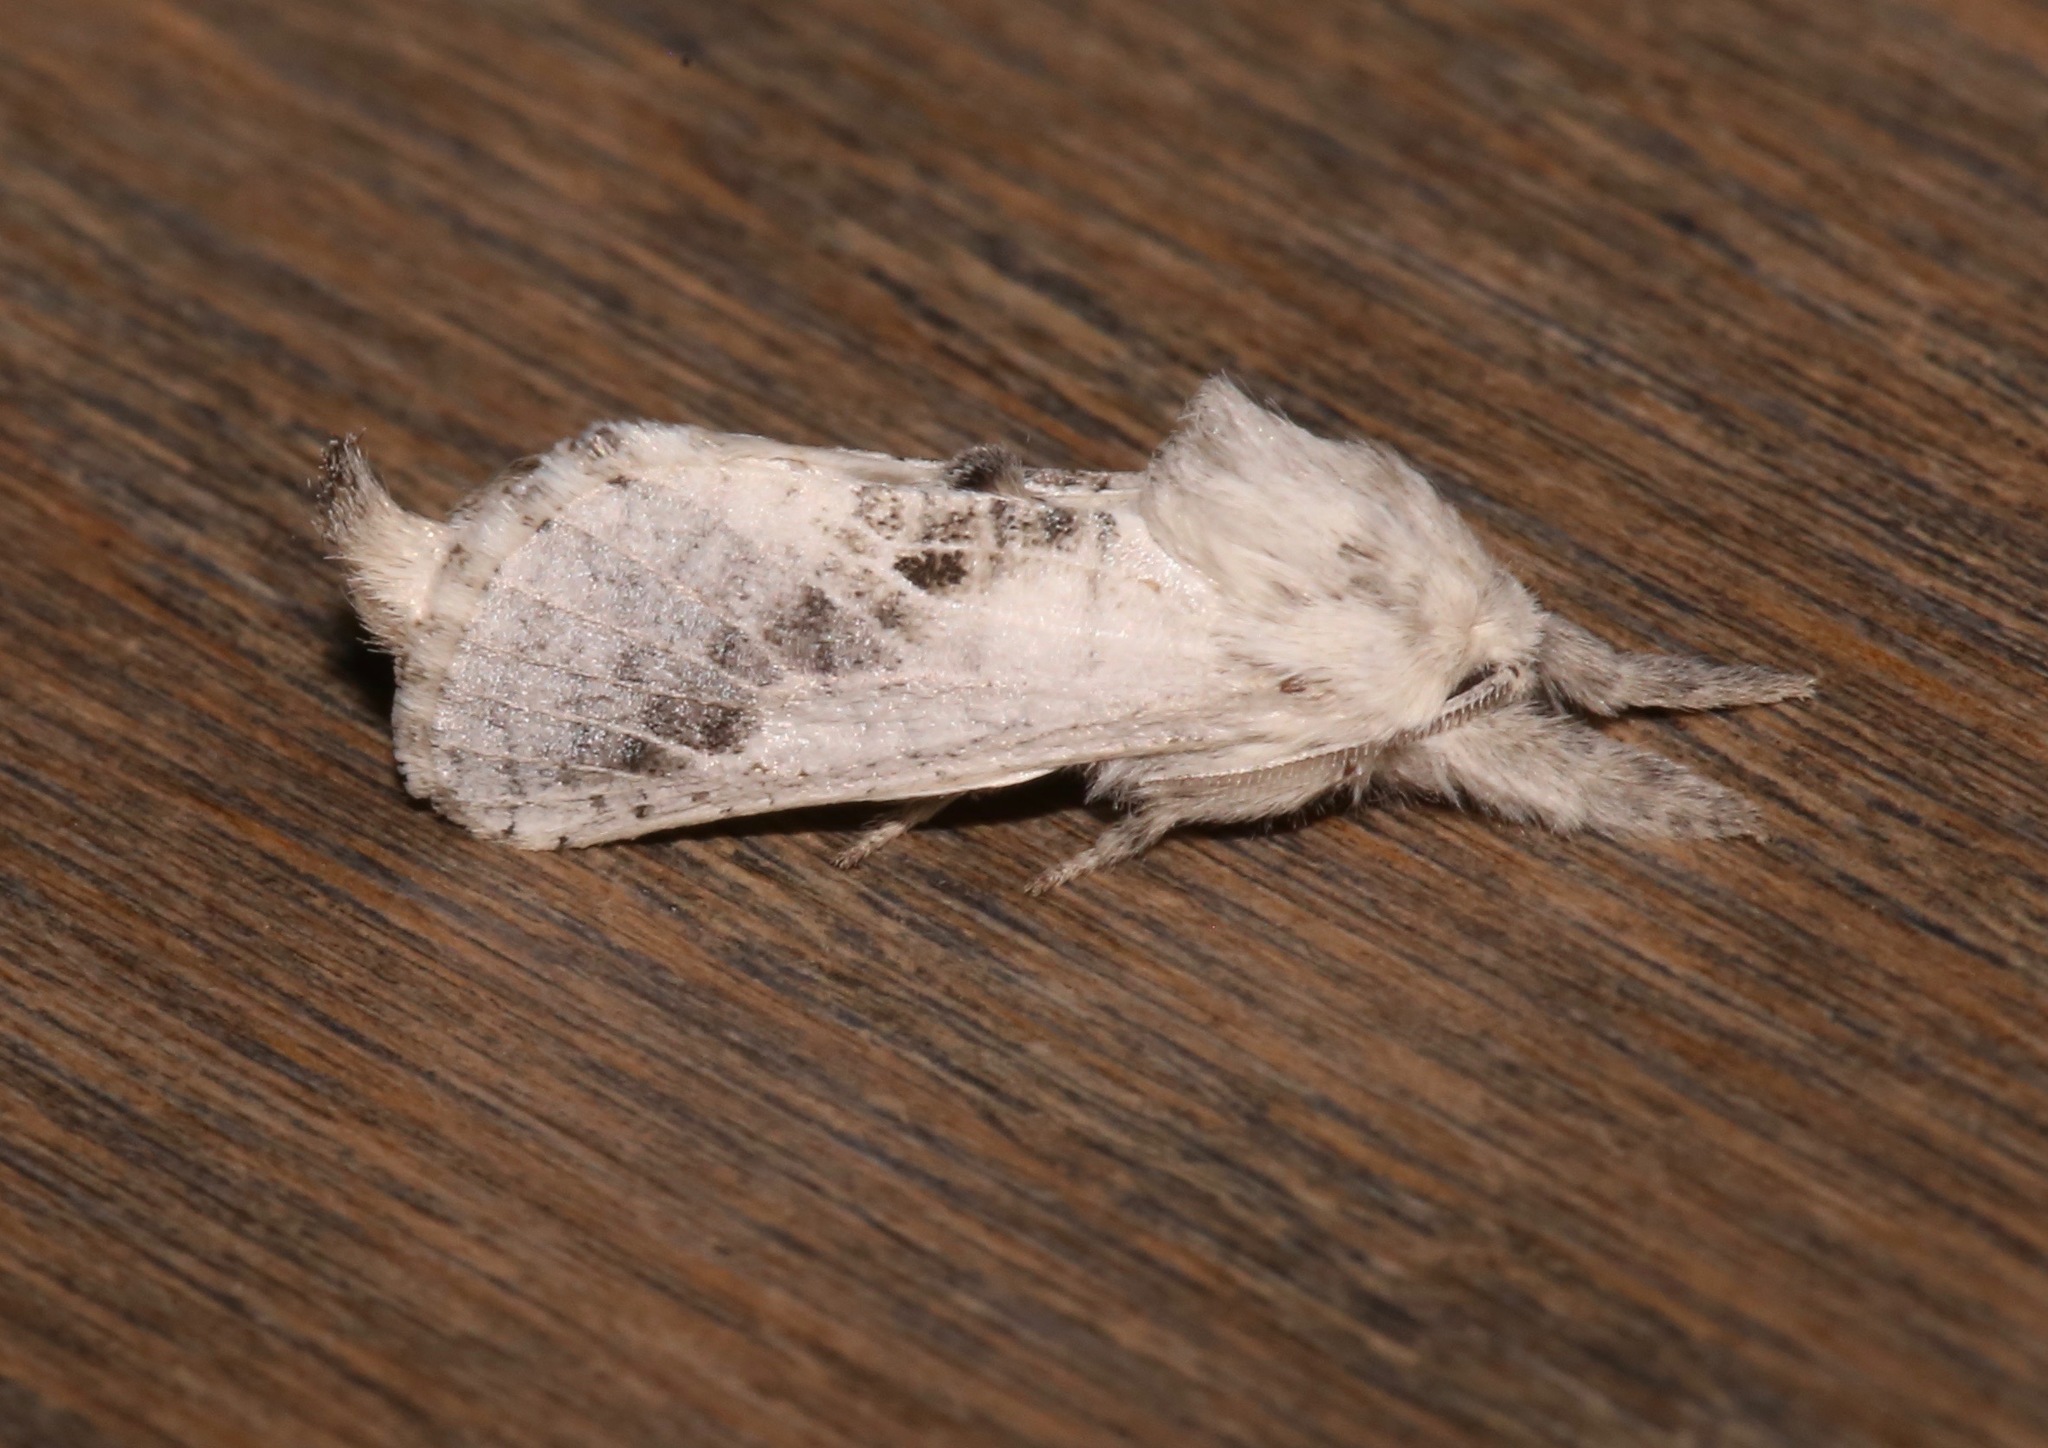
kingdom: Animalia
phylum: Arthropoda
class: Insecta
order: Lepidoptera
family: Cossidae
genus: Givira
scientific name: Givira
